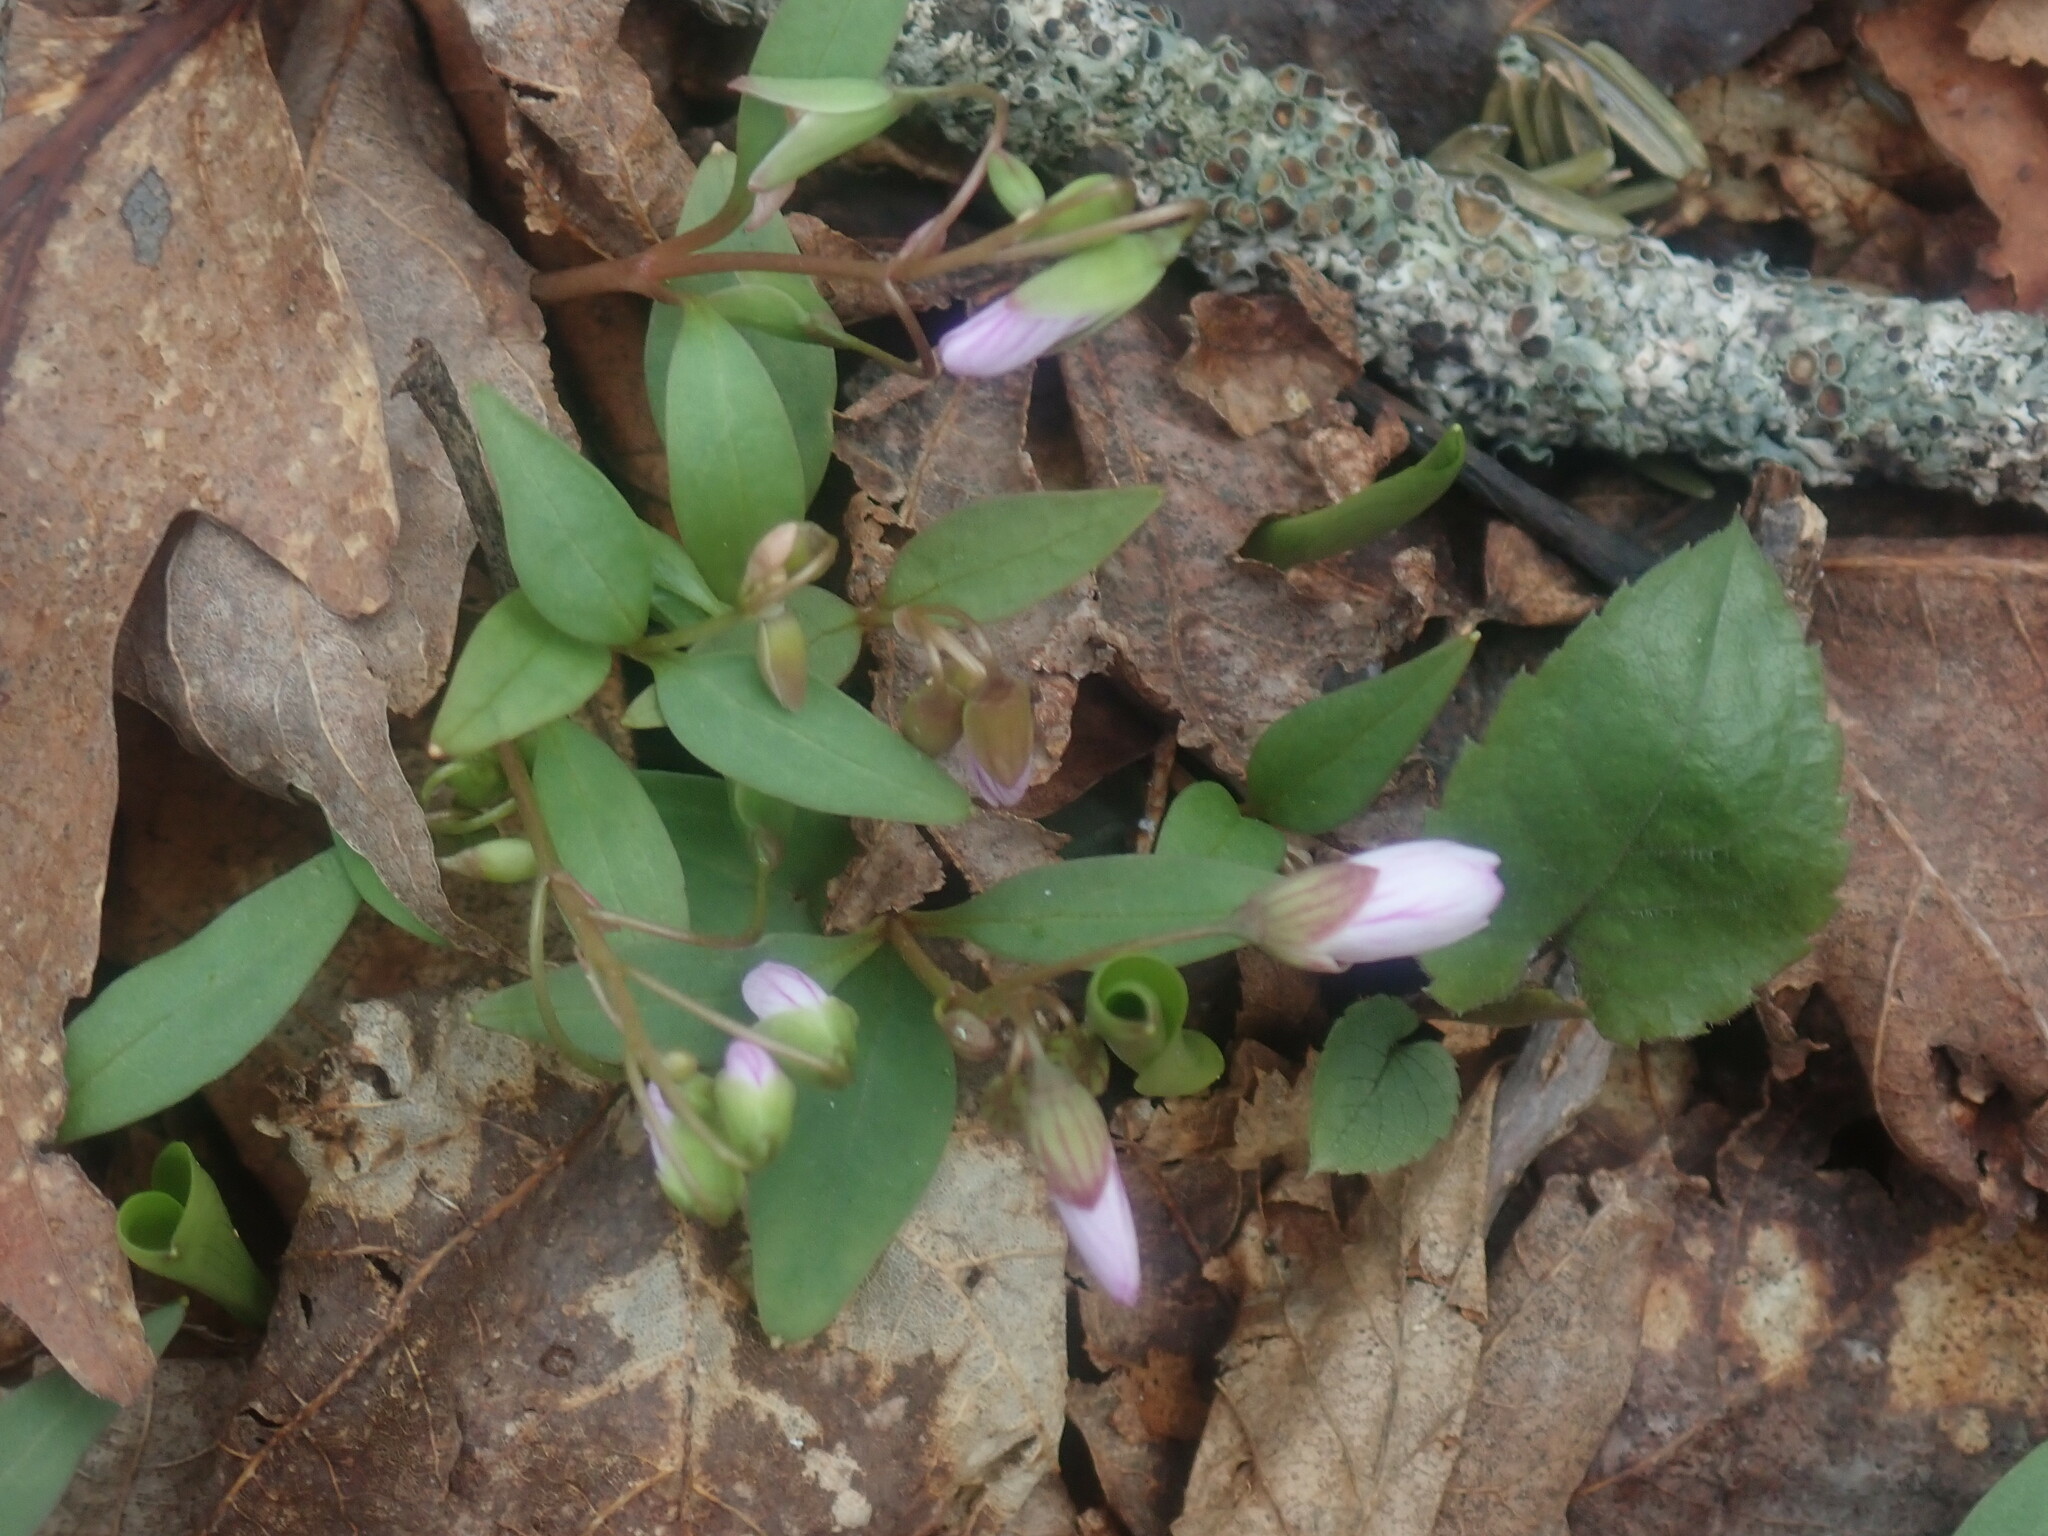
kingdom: Plantae
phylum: Tracheophyta
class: Magnoliopsida
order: Caryophyllales
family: Montiaceae
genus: Claytonia
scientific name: Claytonia caroliniana
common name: Carolina spring beauty
